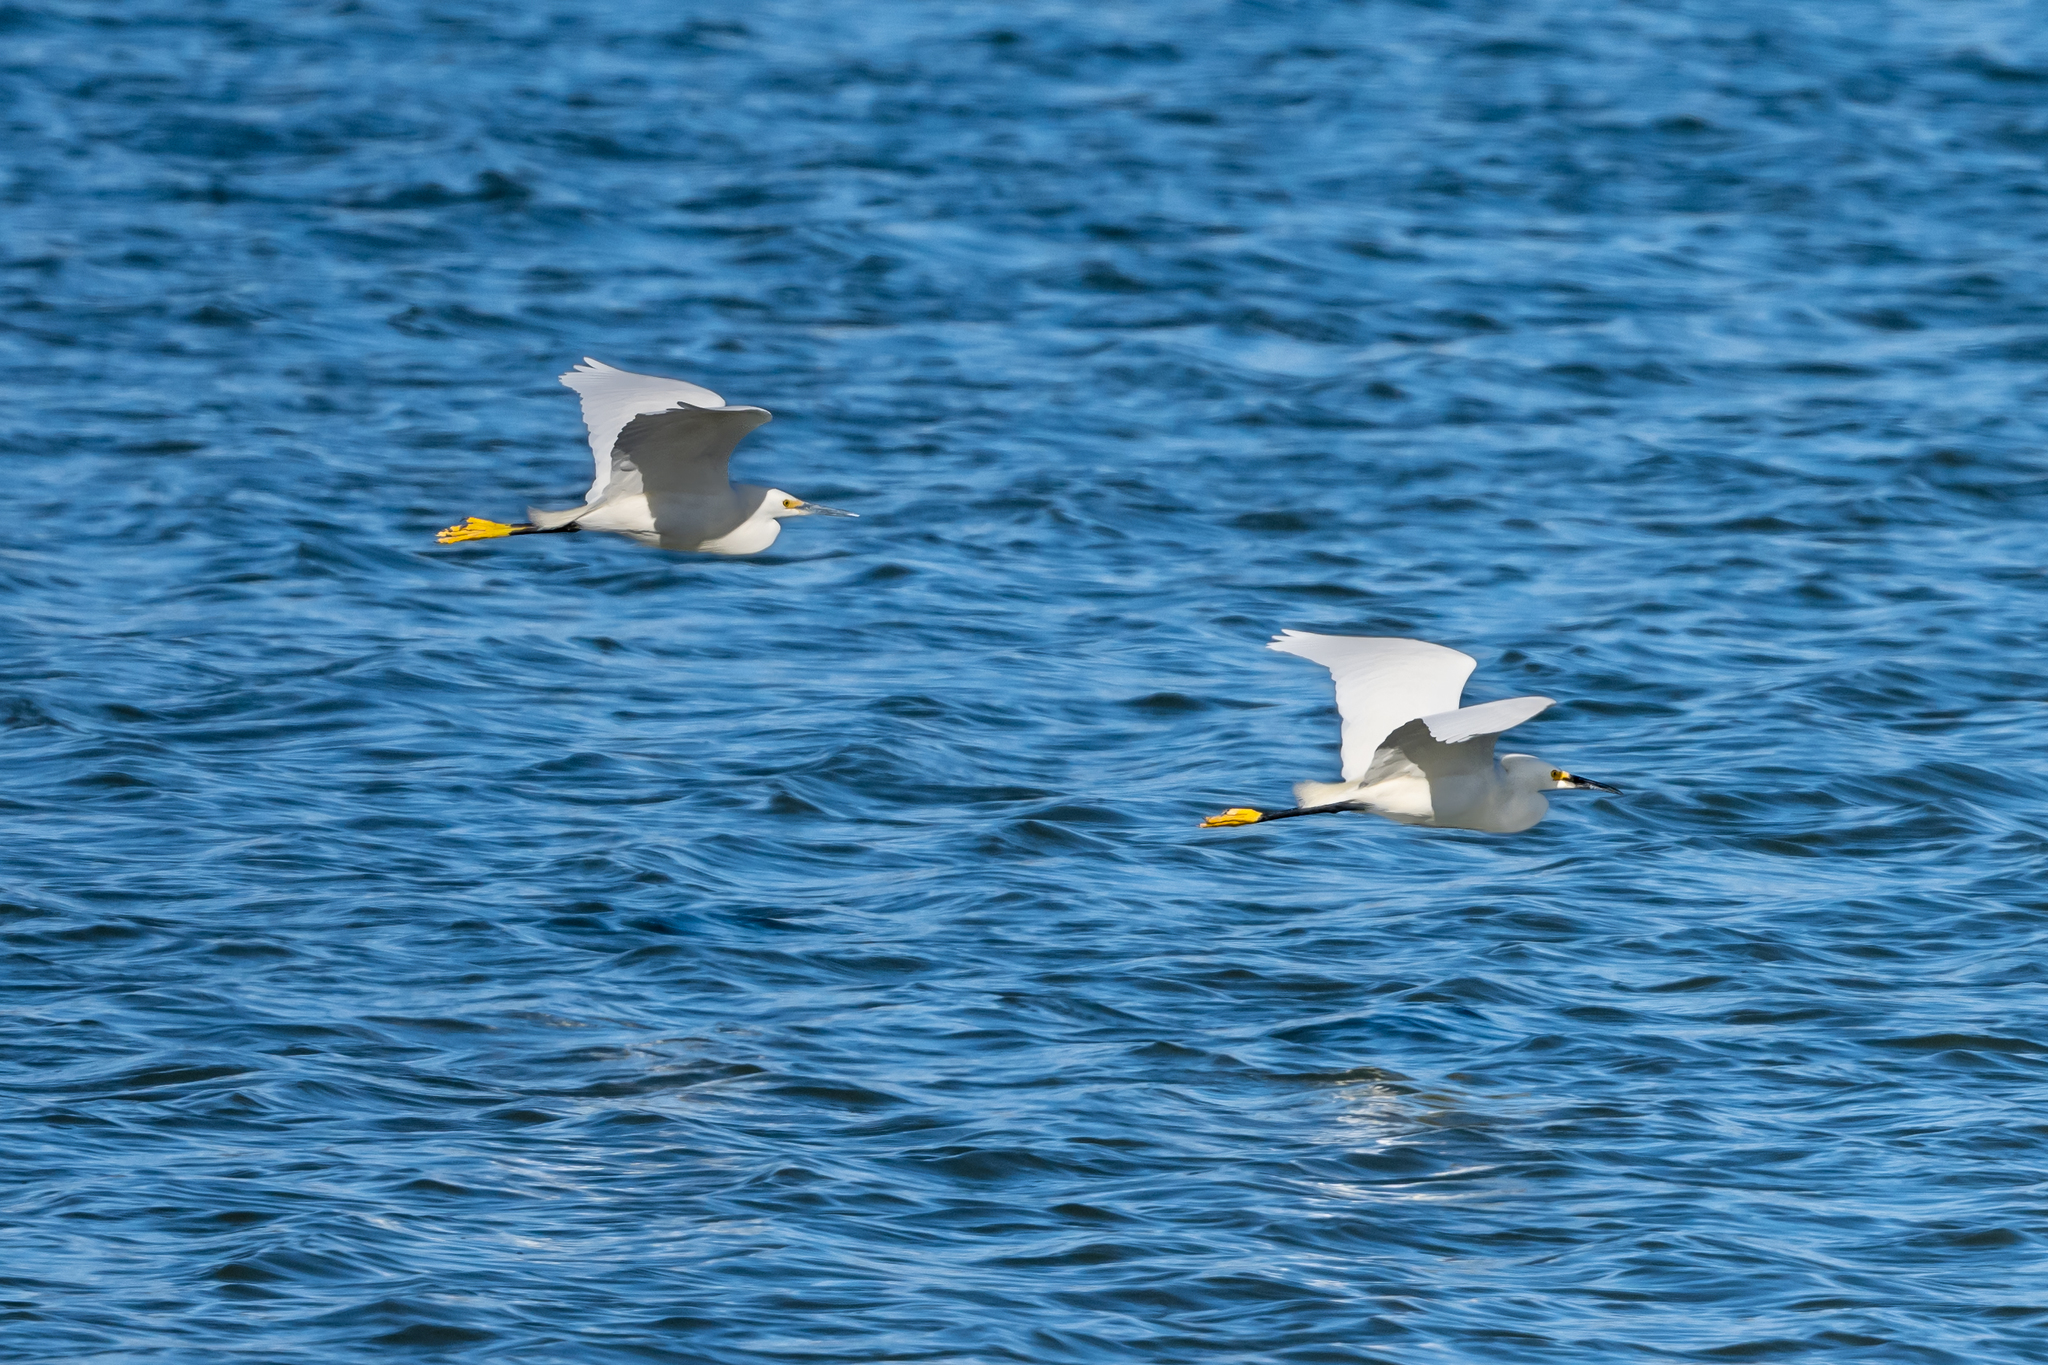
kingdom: Animalia
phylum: Chordata
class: Aves
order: Pelecaniformes
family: Ardeidae
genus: Egretta
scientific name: Egretta thula
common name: Snowy egret
